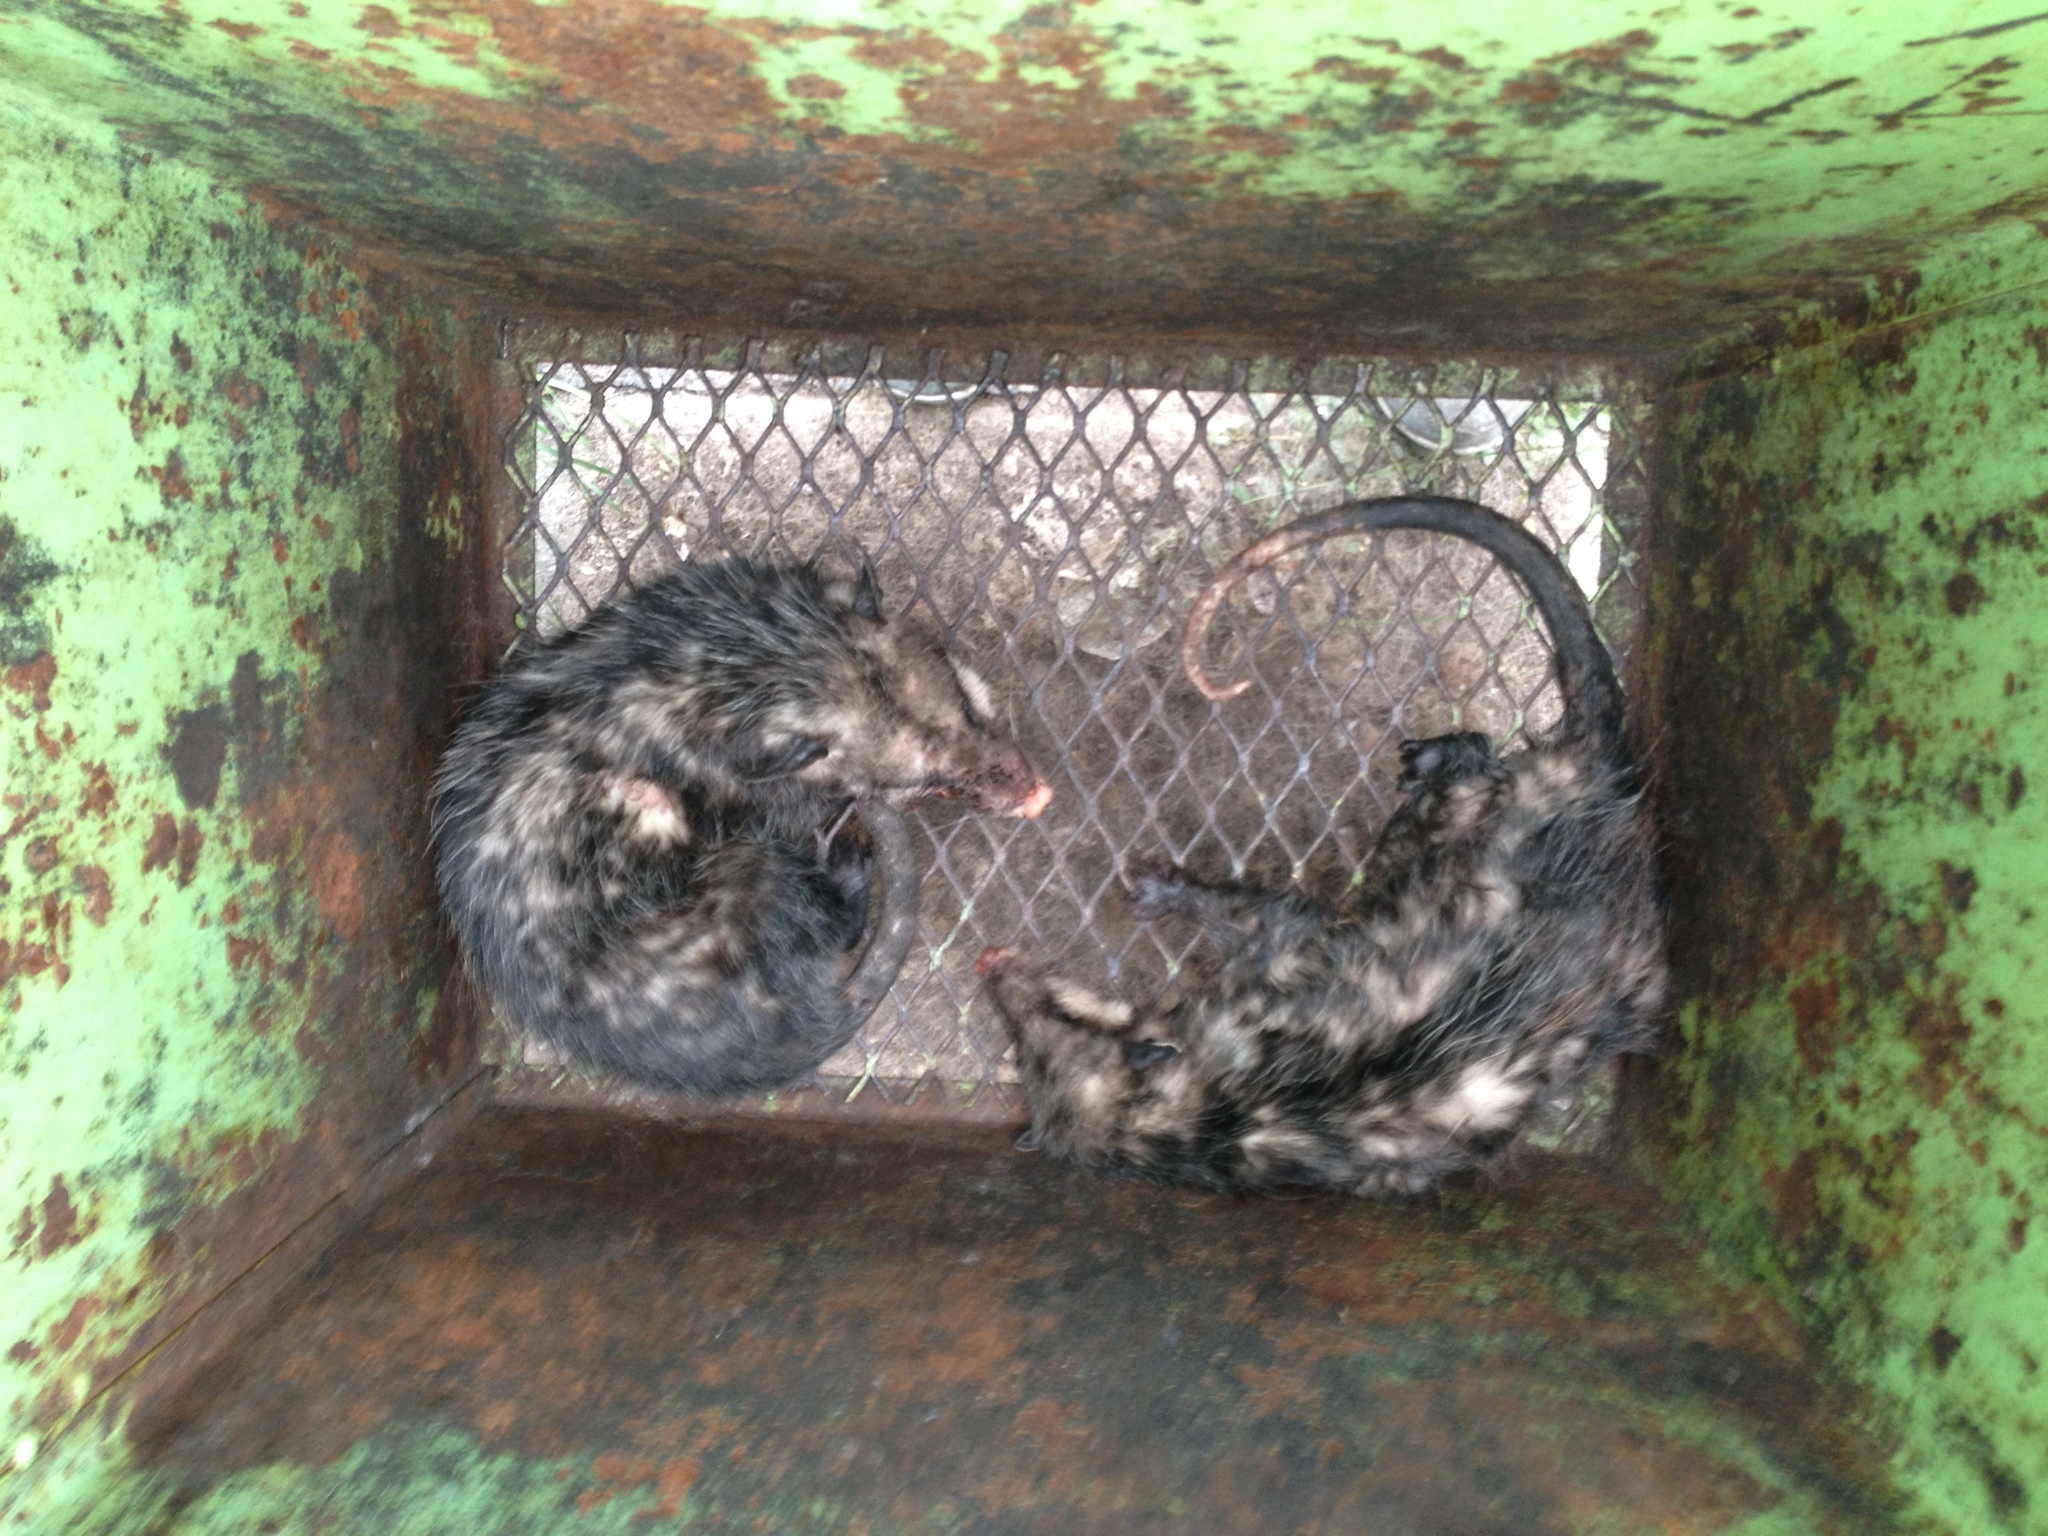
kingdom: Animalia
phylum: Chordata
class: Mammalia
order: Didelphimorphia
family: Didelphidae
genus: Didelphis
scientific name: Didelphis virginiana
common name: Virginia opossum
